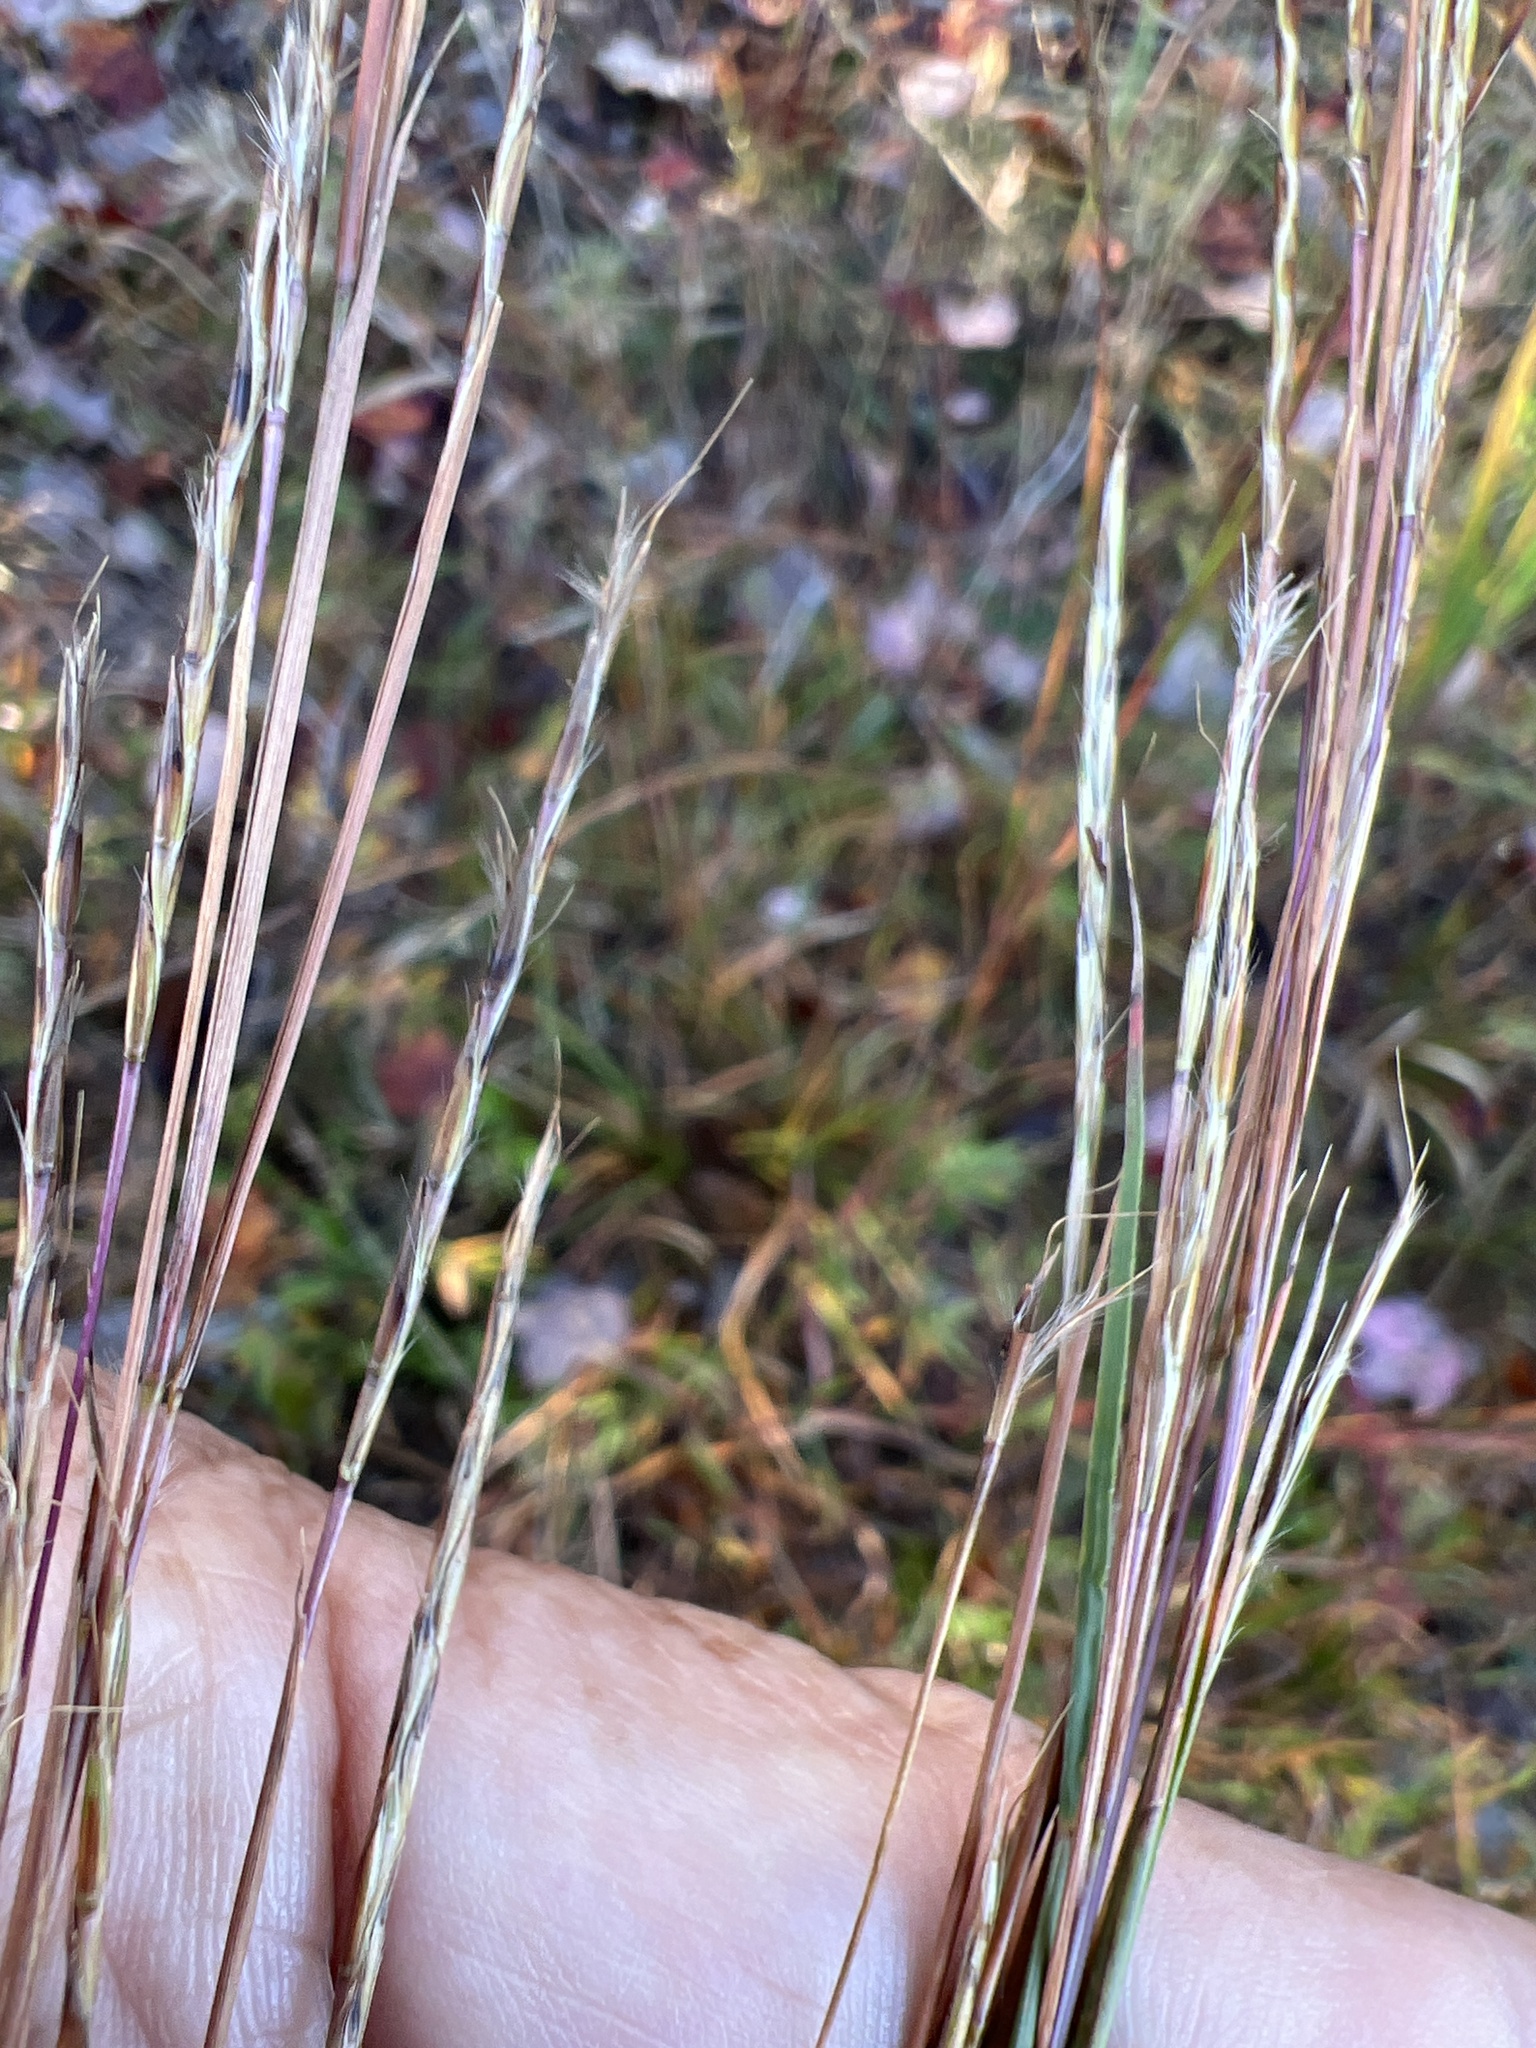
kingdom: Plantae
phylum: Tracheophyta
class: Liliopsida
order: Poales
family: Poaceae
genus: Schizachyrium
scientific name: Schizachyrium scoparium
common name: Little bluestem
